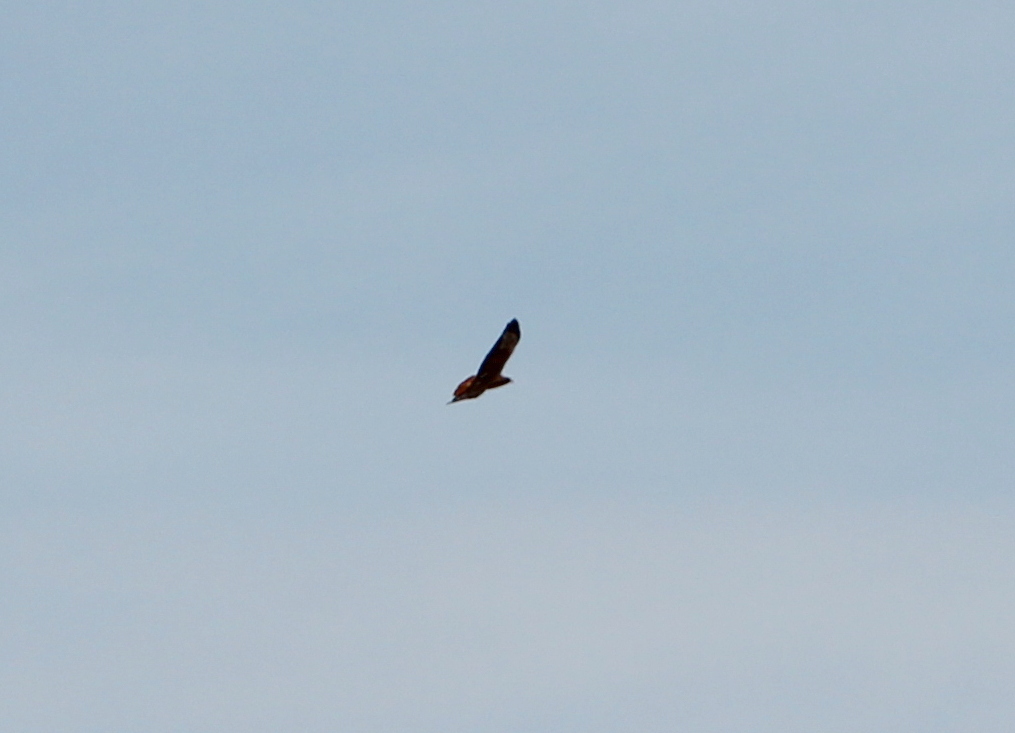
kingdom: Animalia
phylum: Chordata
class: Aves
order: Accipitriformes
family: Accipitridae
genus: Buteo
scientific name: Buteo jamaicensis
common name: Red-tailed hawk
